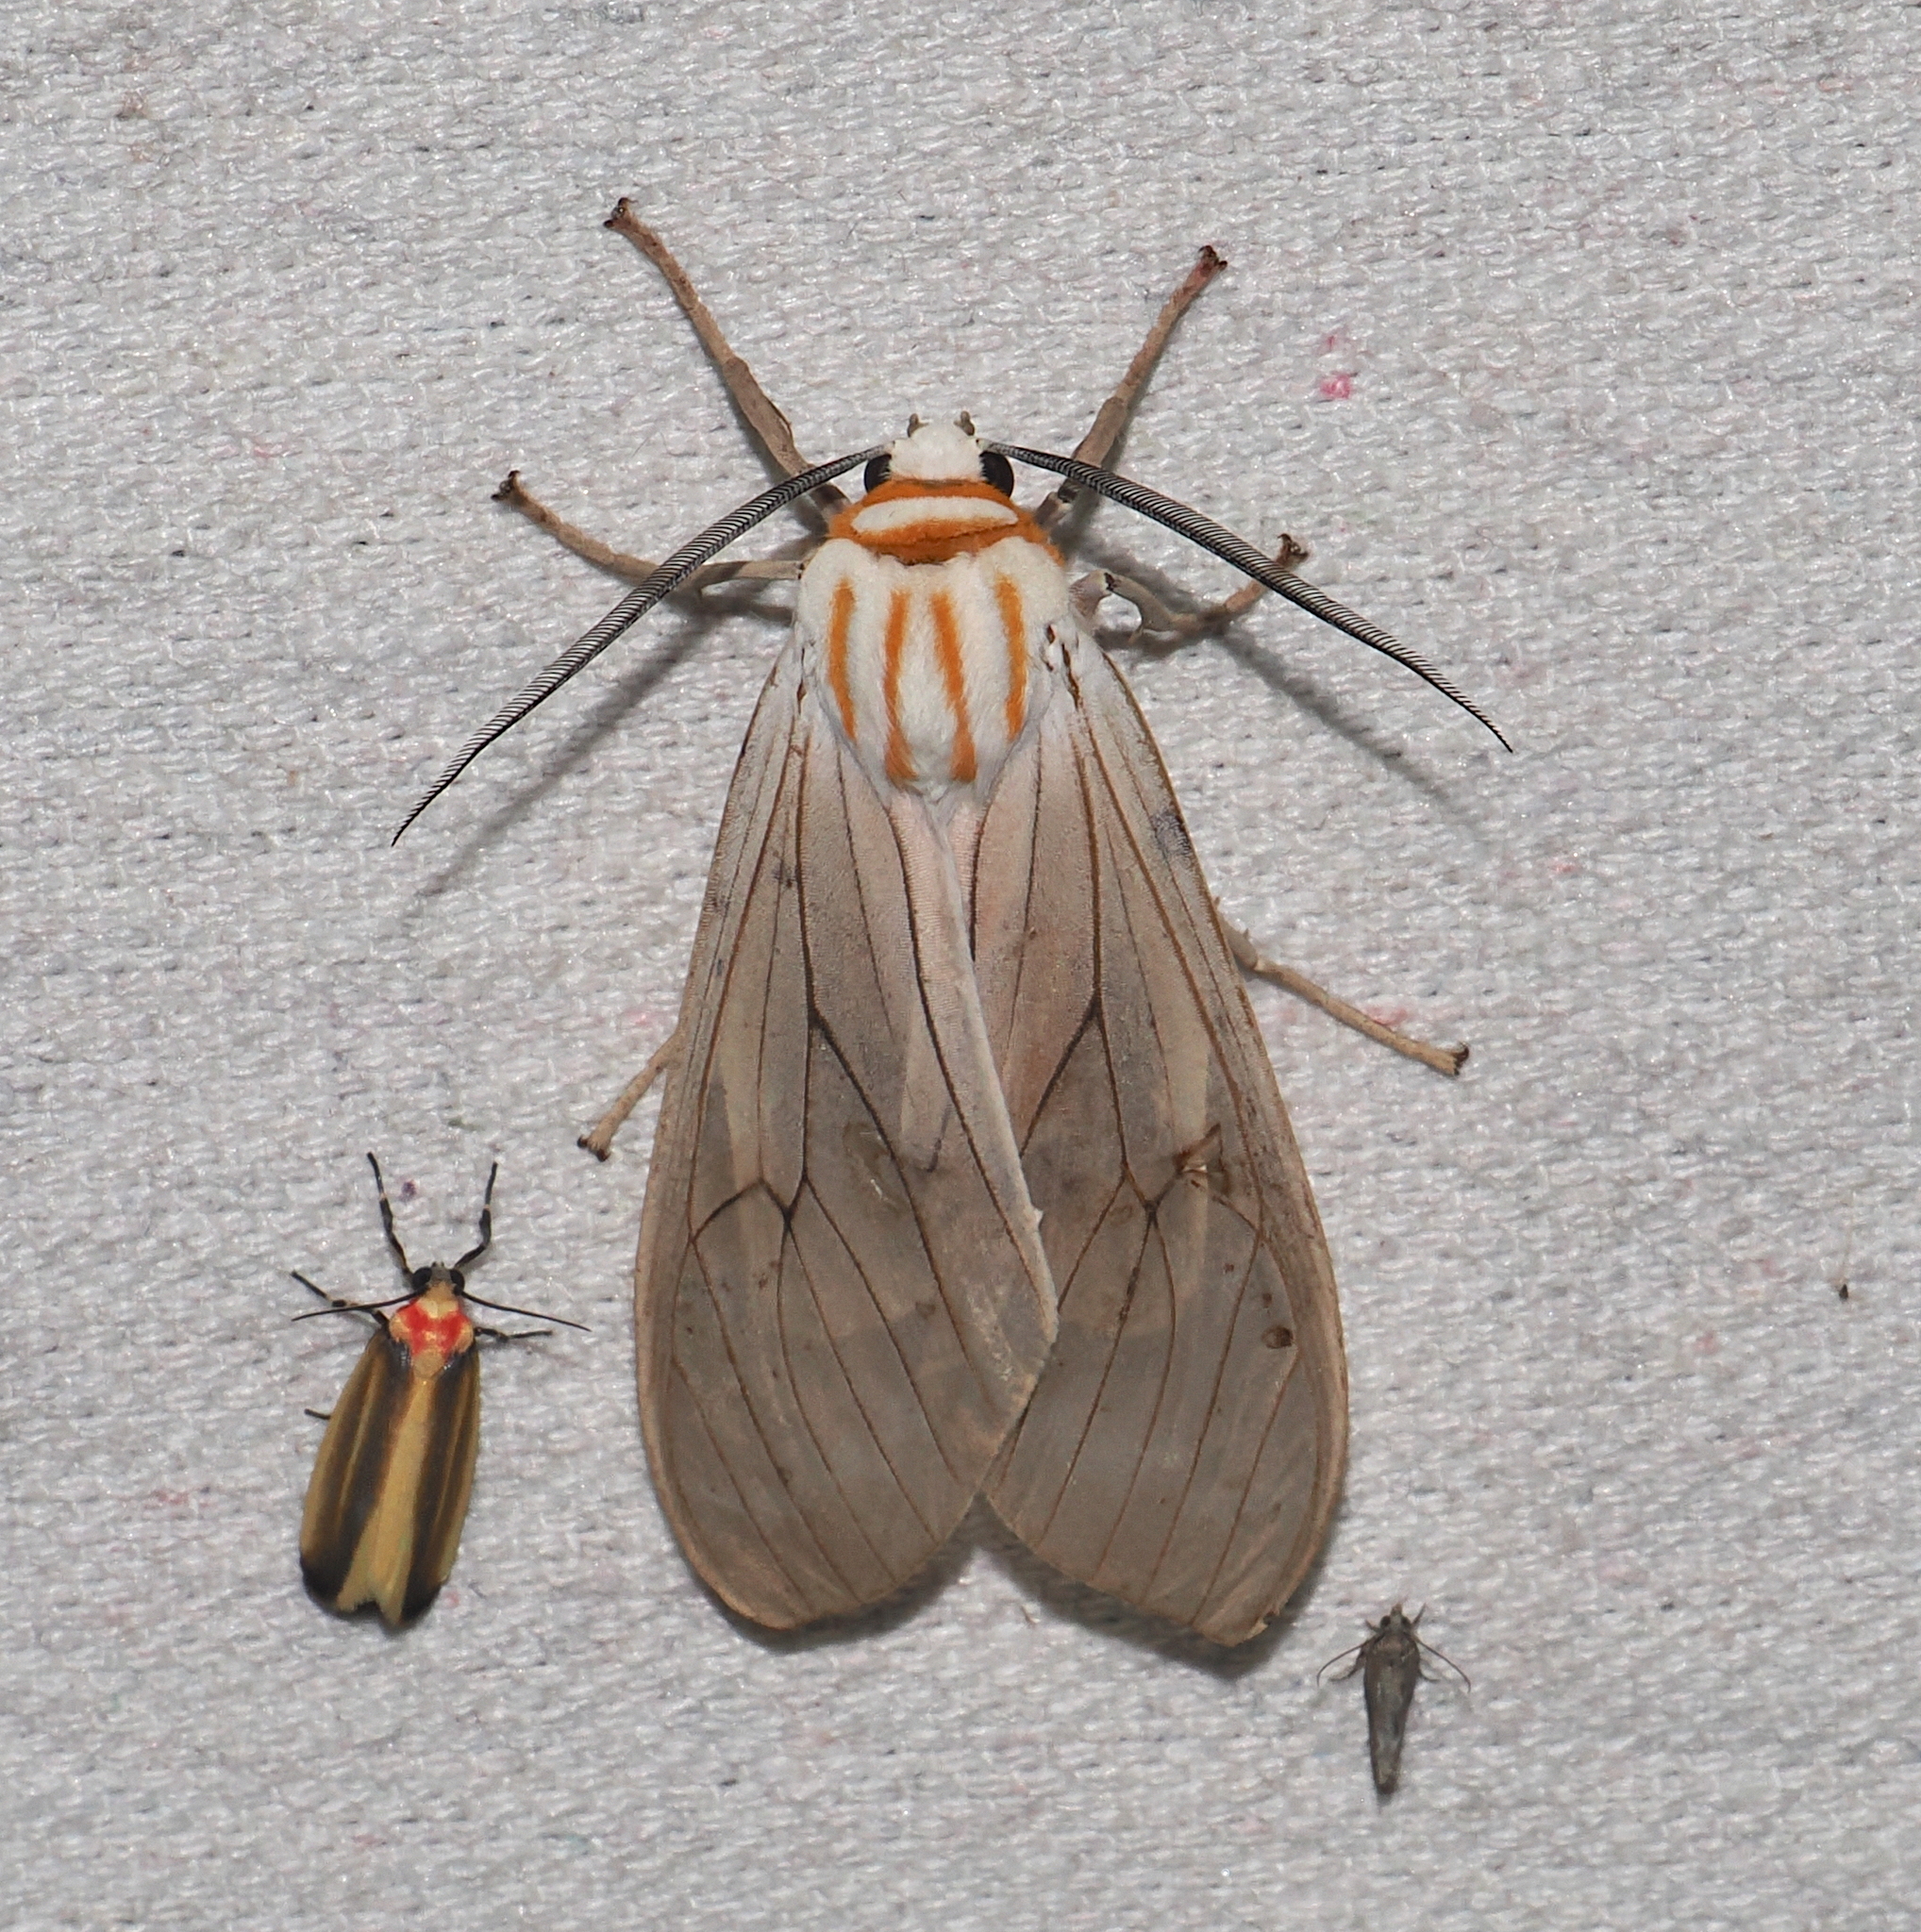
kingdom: Animalia
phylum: Arthropoda
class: Insecta
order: Lepidoptera
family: Erebidae
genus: Amastus
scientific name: Amastus aconia
